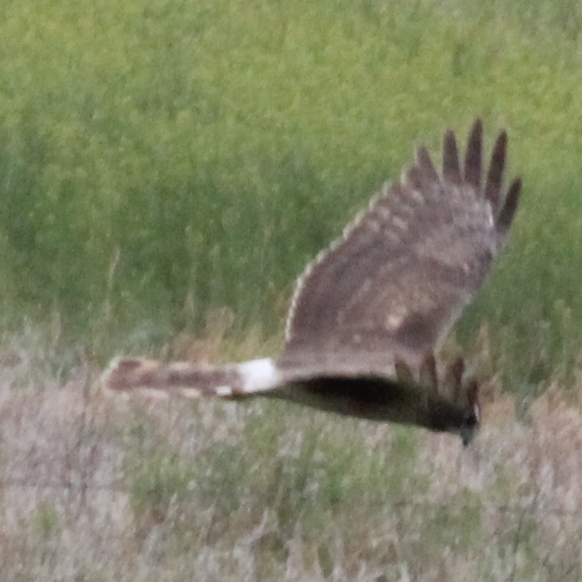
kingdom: Animalia
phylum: Chordata
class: Aves
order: Accipitriformes
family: Accipitridae
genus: Circus
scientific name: Circus cyaneus
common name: Hen harrier
